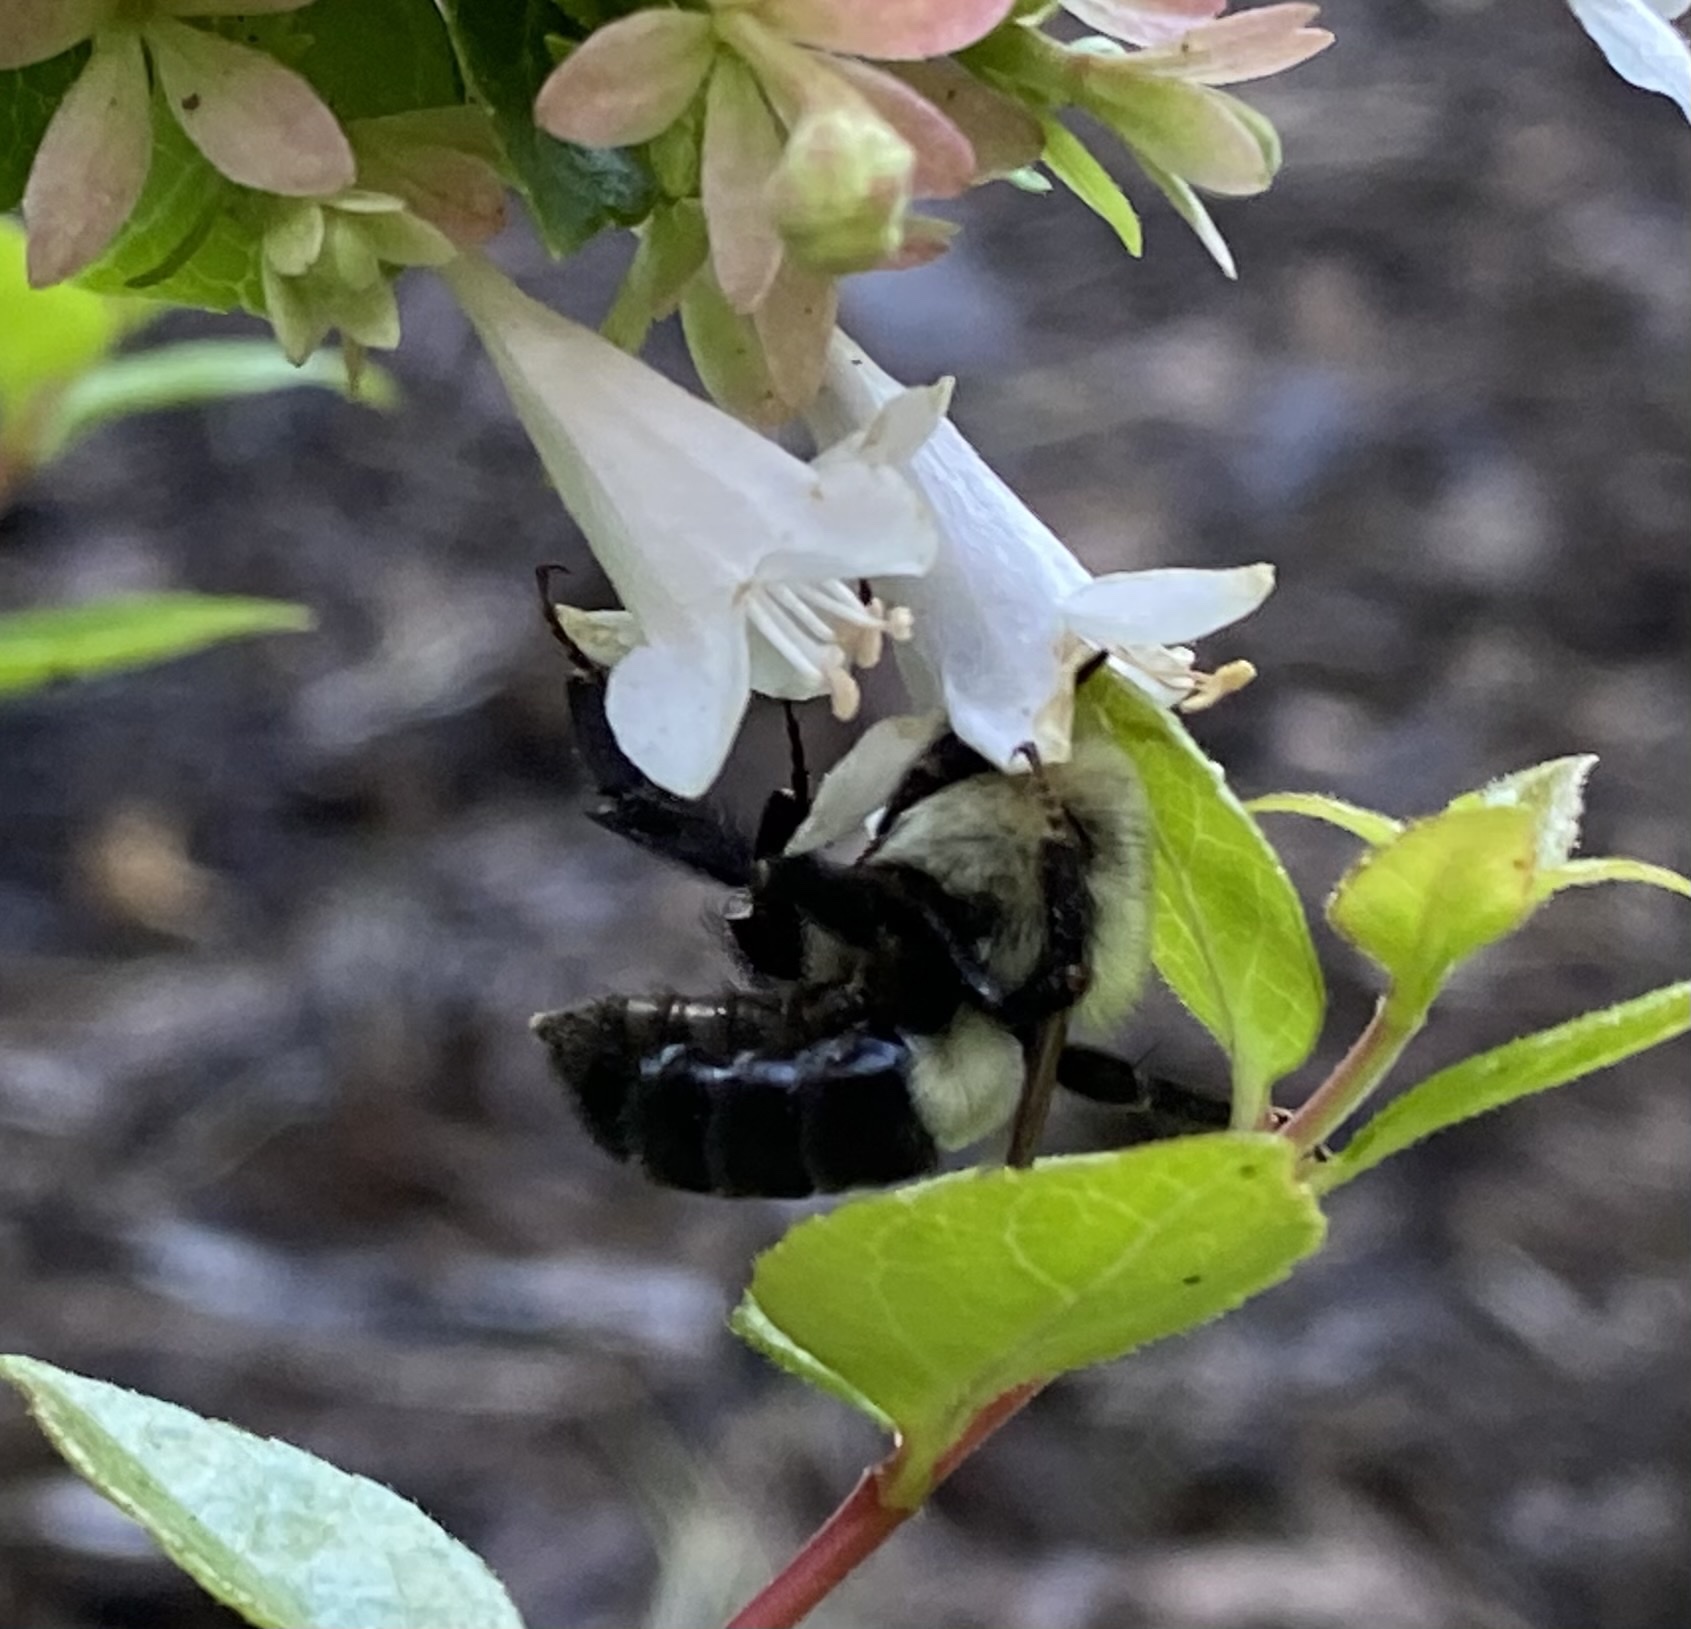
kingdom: Animalia
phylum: Arthropoda
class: Insecta
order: Hymenoptera
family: Apidae
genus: Bombus
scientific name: Bombus impatiens
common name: Common eastern bumble bee
